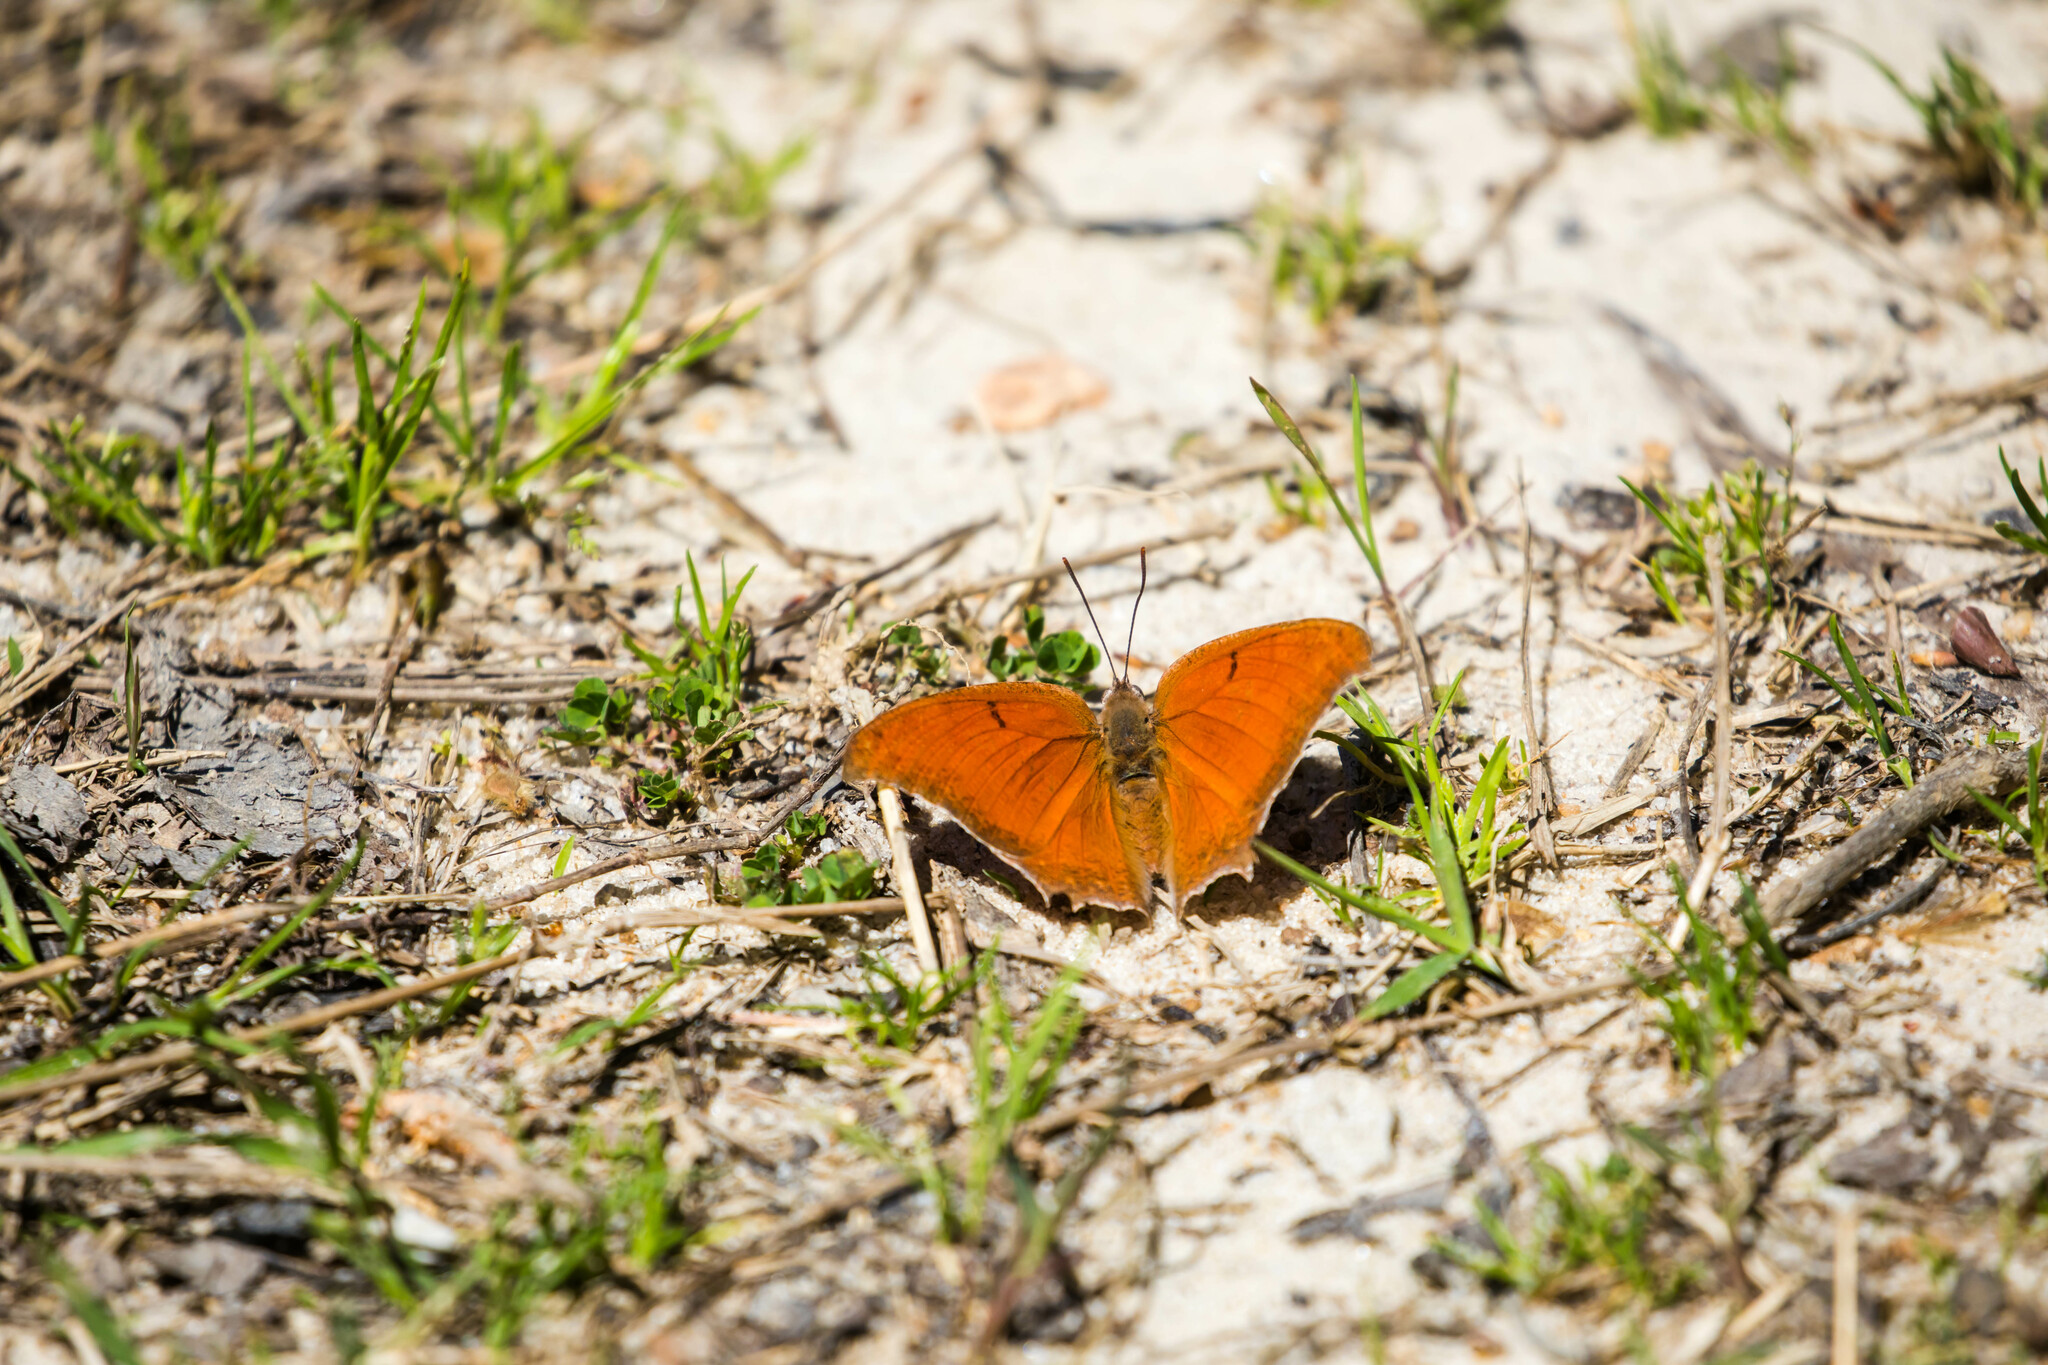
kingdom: Animalia
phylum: Arthropoda
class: Insecta
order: Lepidoptera
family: Nymphalidae
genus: Anaea
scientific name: Anaea andria
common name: Goatweed leafwing
